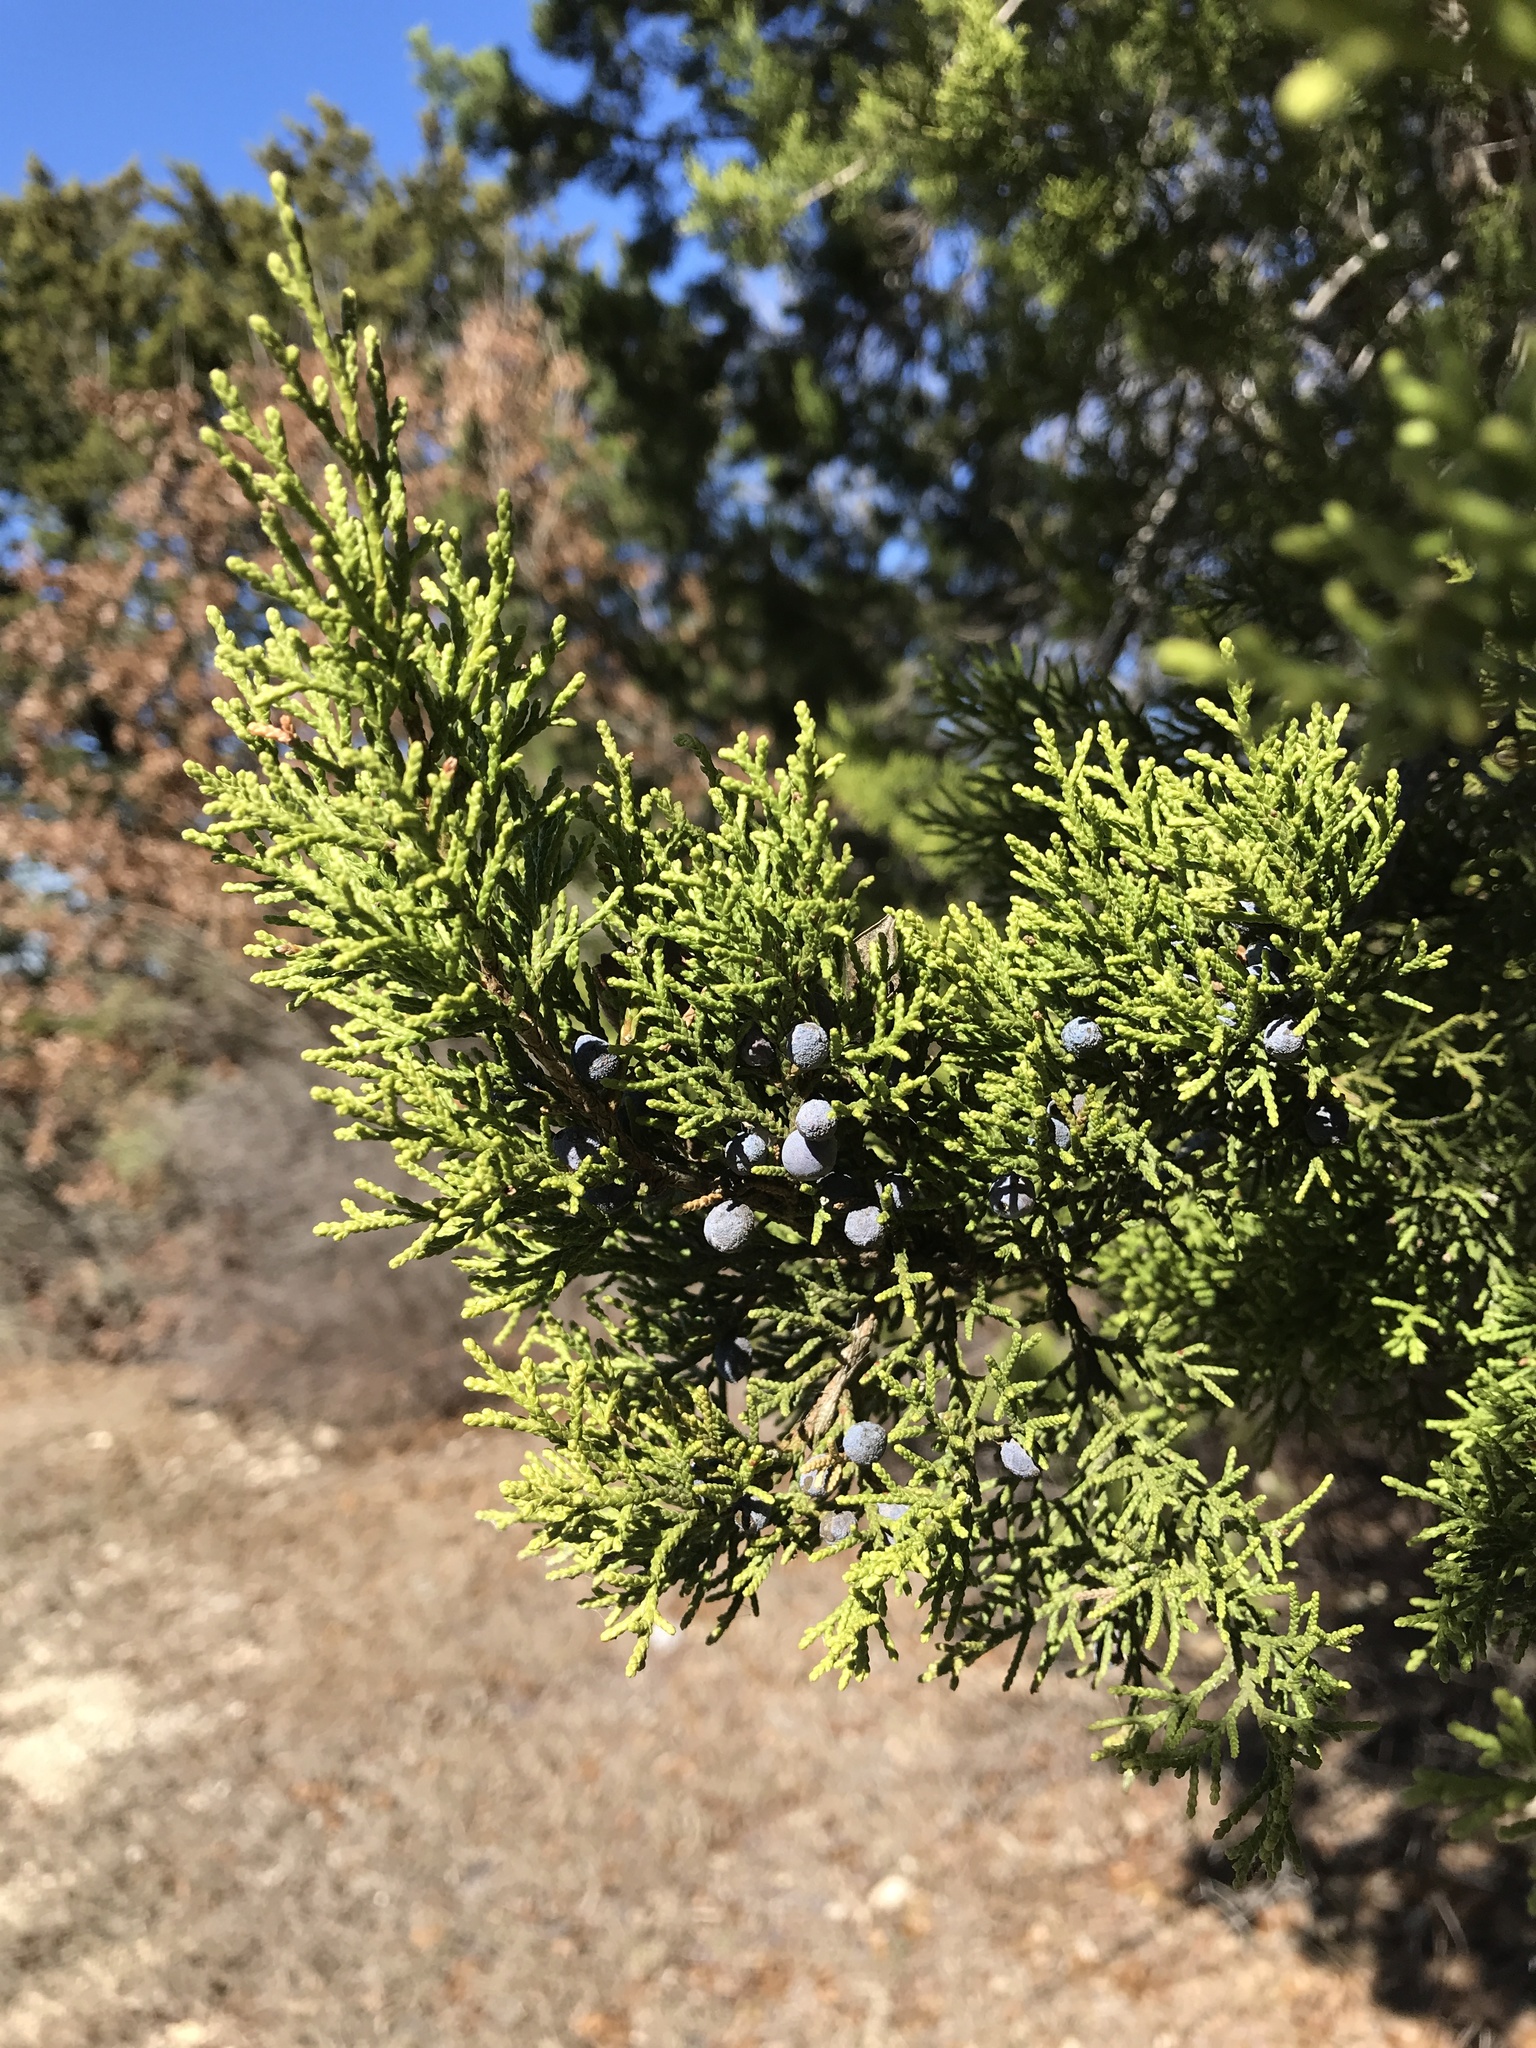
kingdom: Plantae
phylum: Tracheophyta
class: Pinopsida
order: Pinales
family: Cupressaceae
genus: Juniperus
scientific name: Juniperus ashei
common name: Mexican juniper
